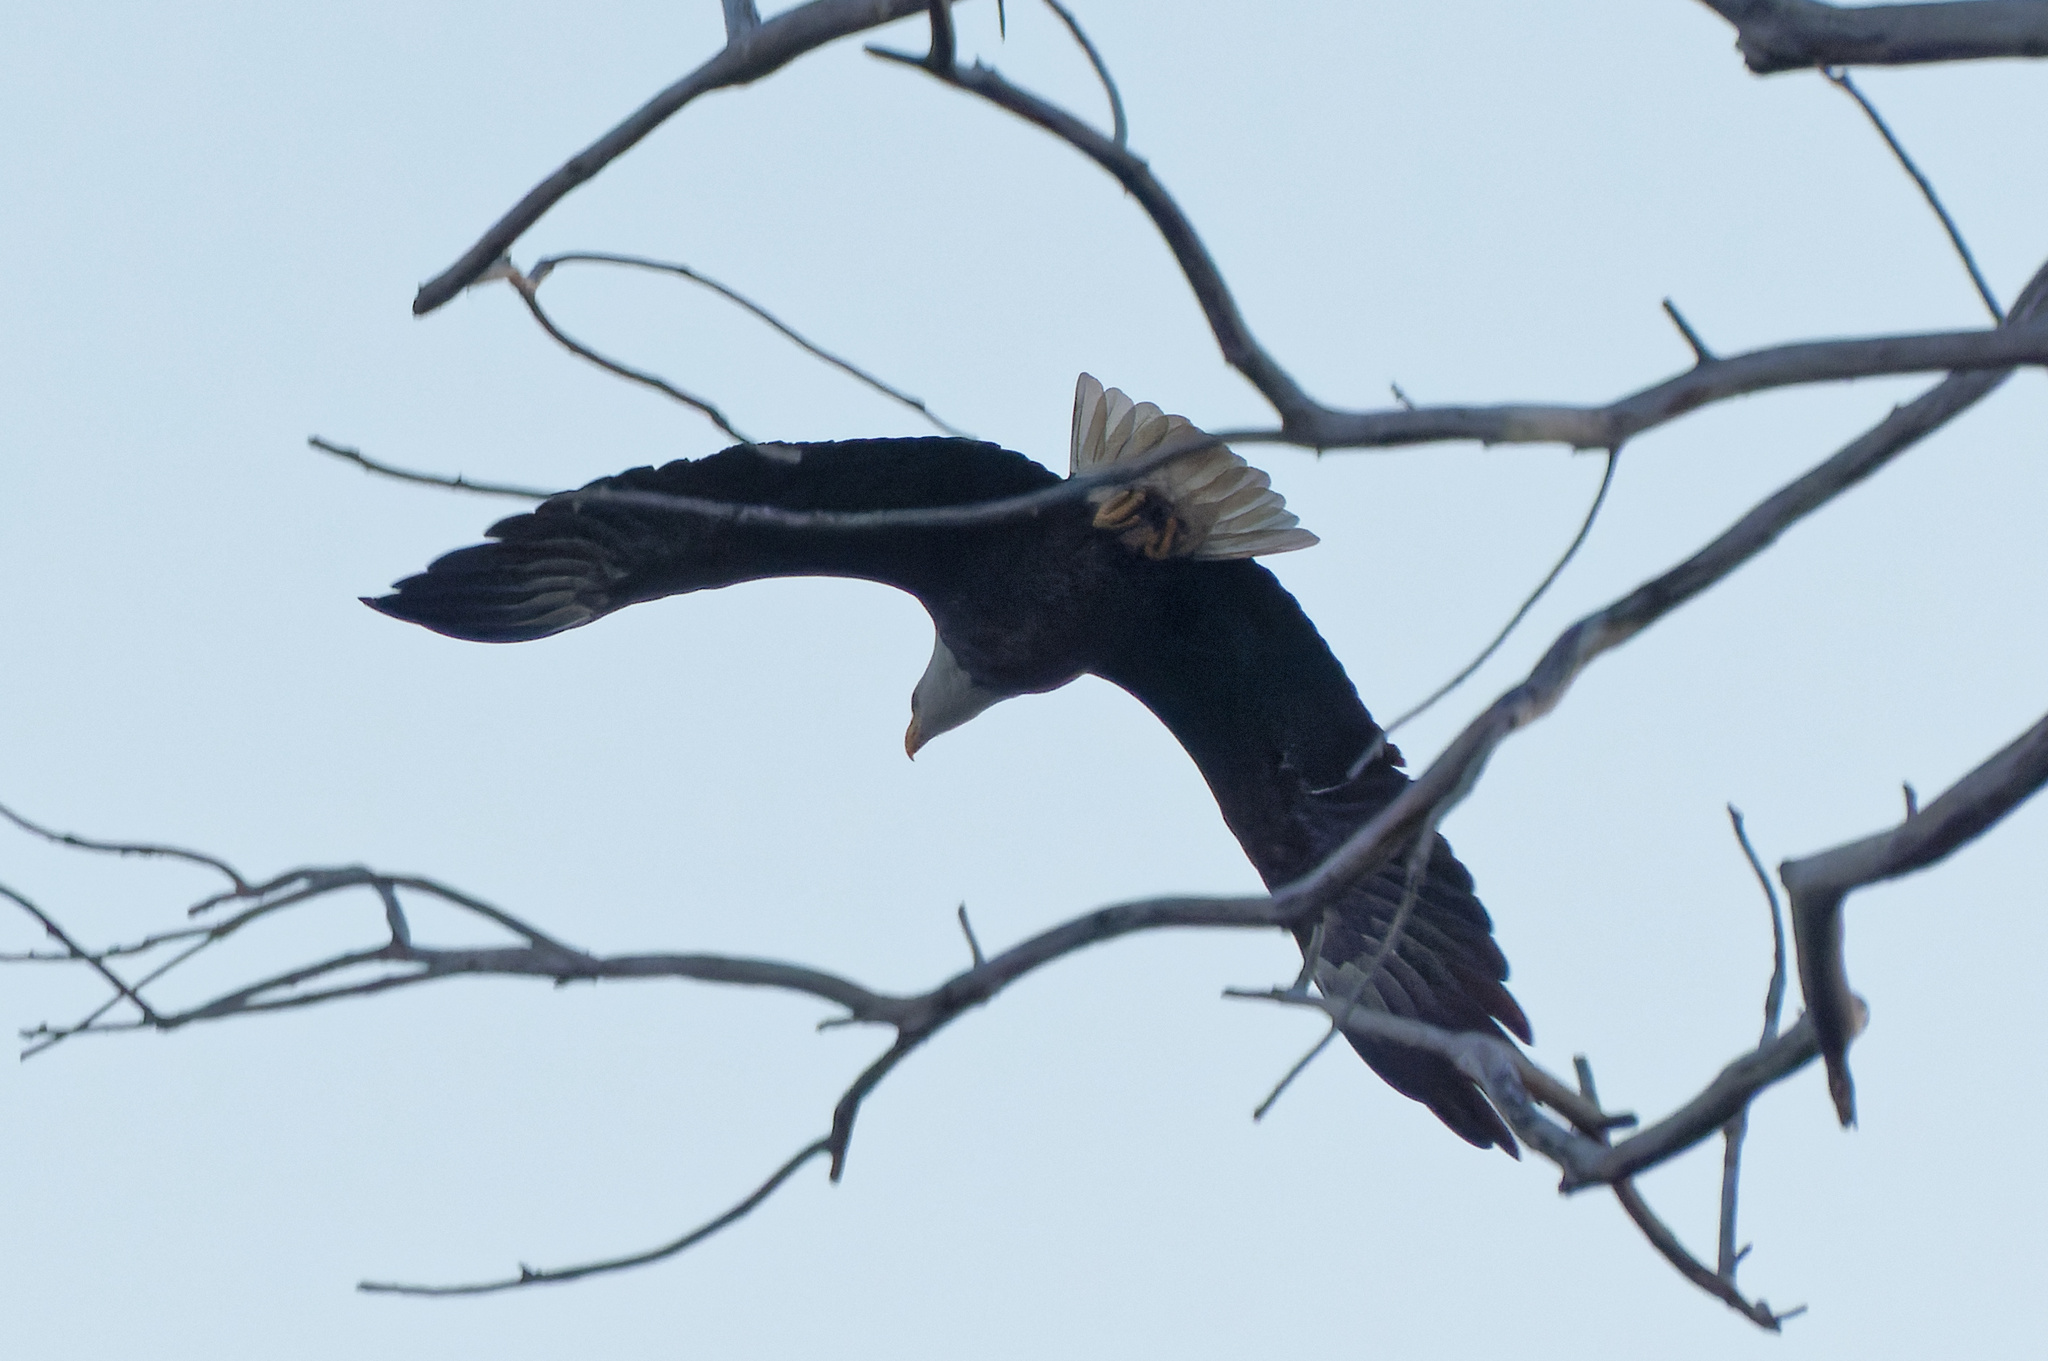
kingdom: Animalia
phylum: Chordata
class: Aves
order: Accipitriformes
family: Accipitridae
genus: Haliaeetus
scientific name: Haliaeetus leucocephalus
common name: Bald eagle
